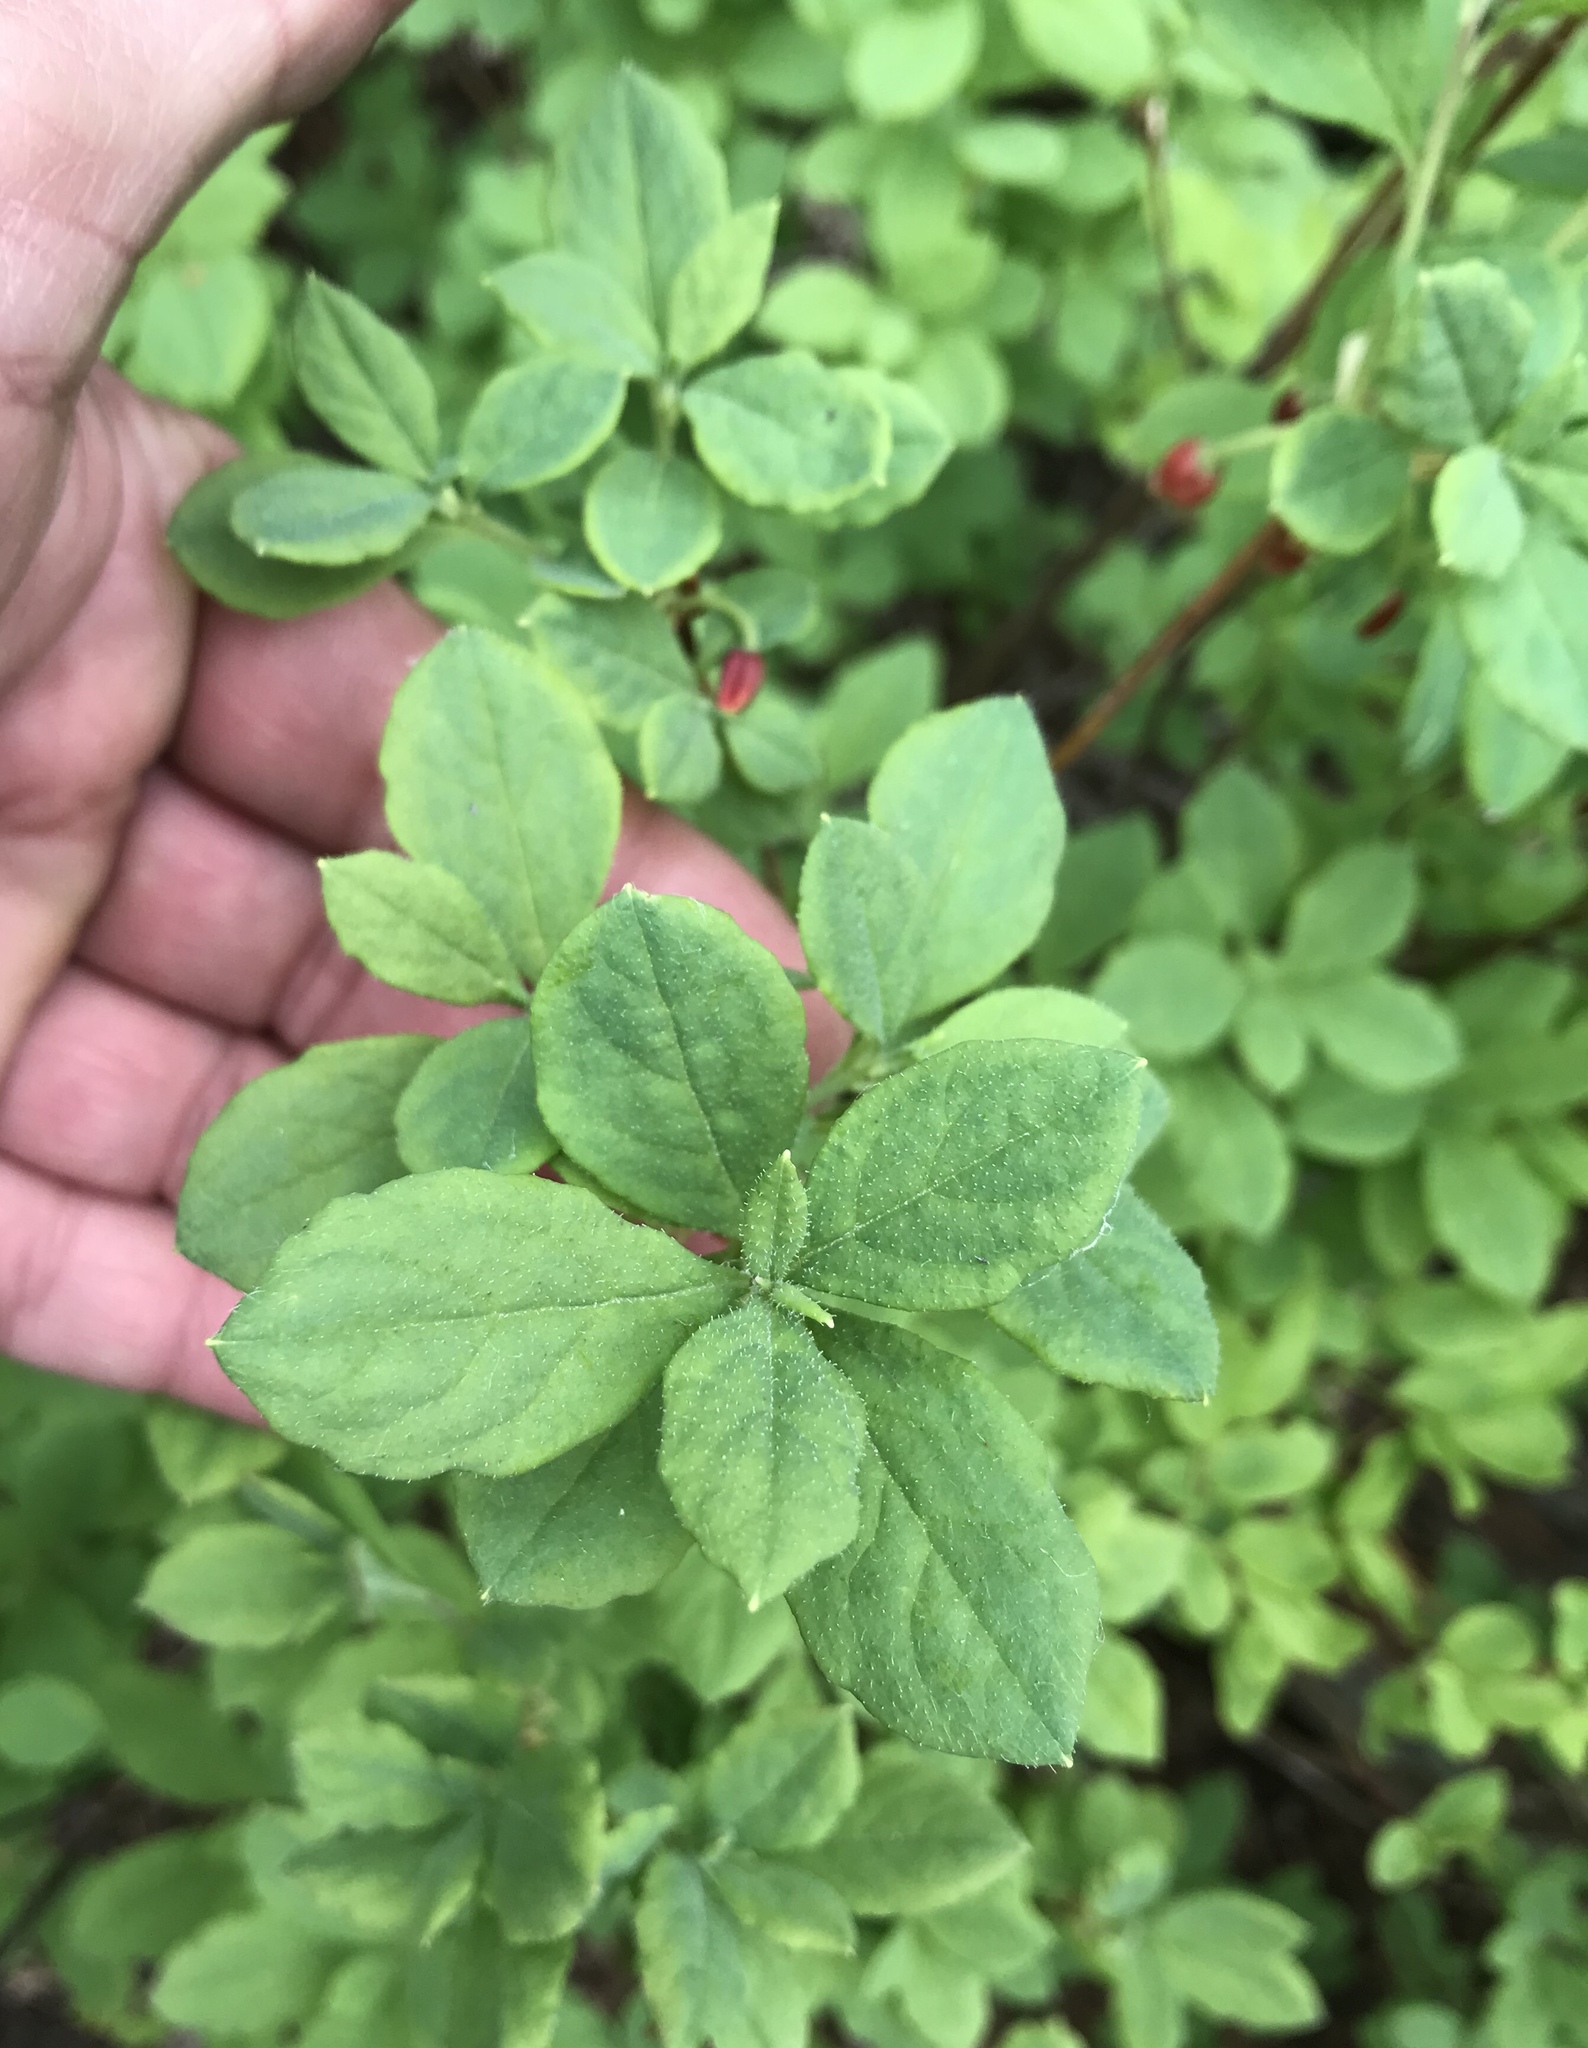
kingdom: Plantae
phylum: Tracheophyta
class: Magnoliopsida
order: Ericales
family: Ericaceae
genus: Rhododendron
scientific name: Rhododendron menziesii
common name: Pacific menziesia
